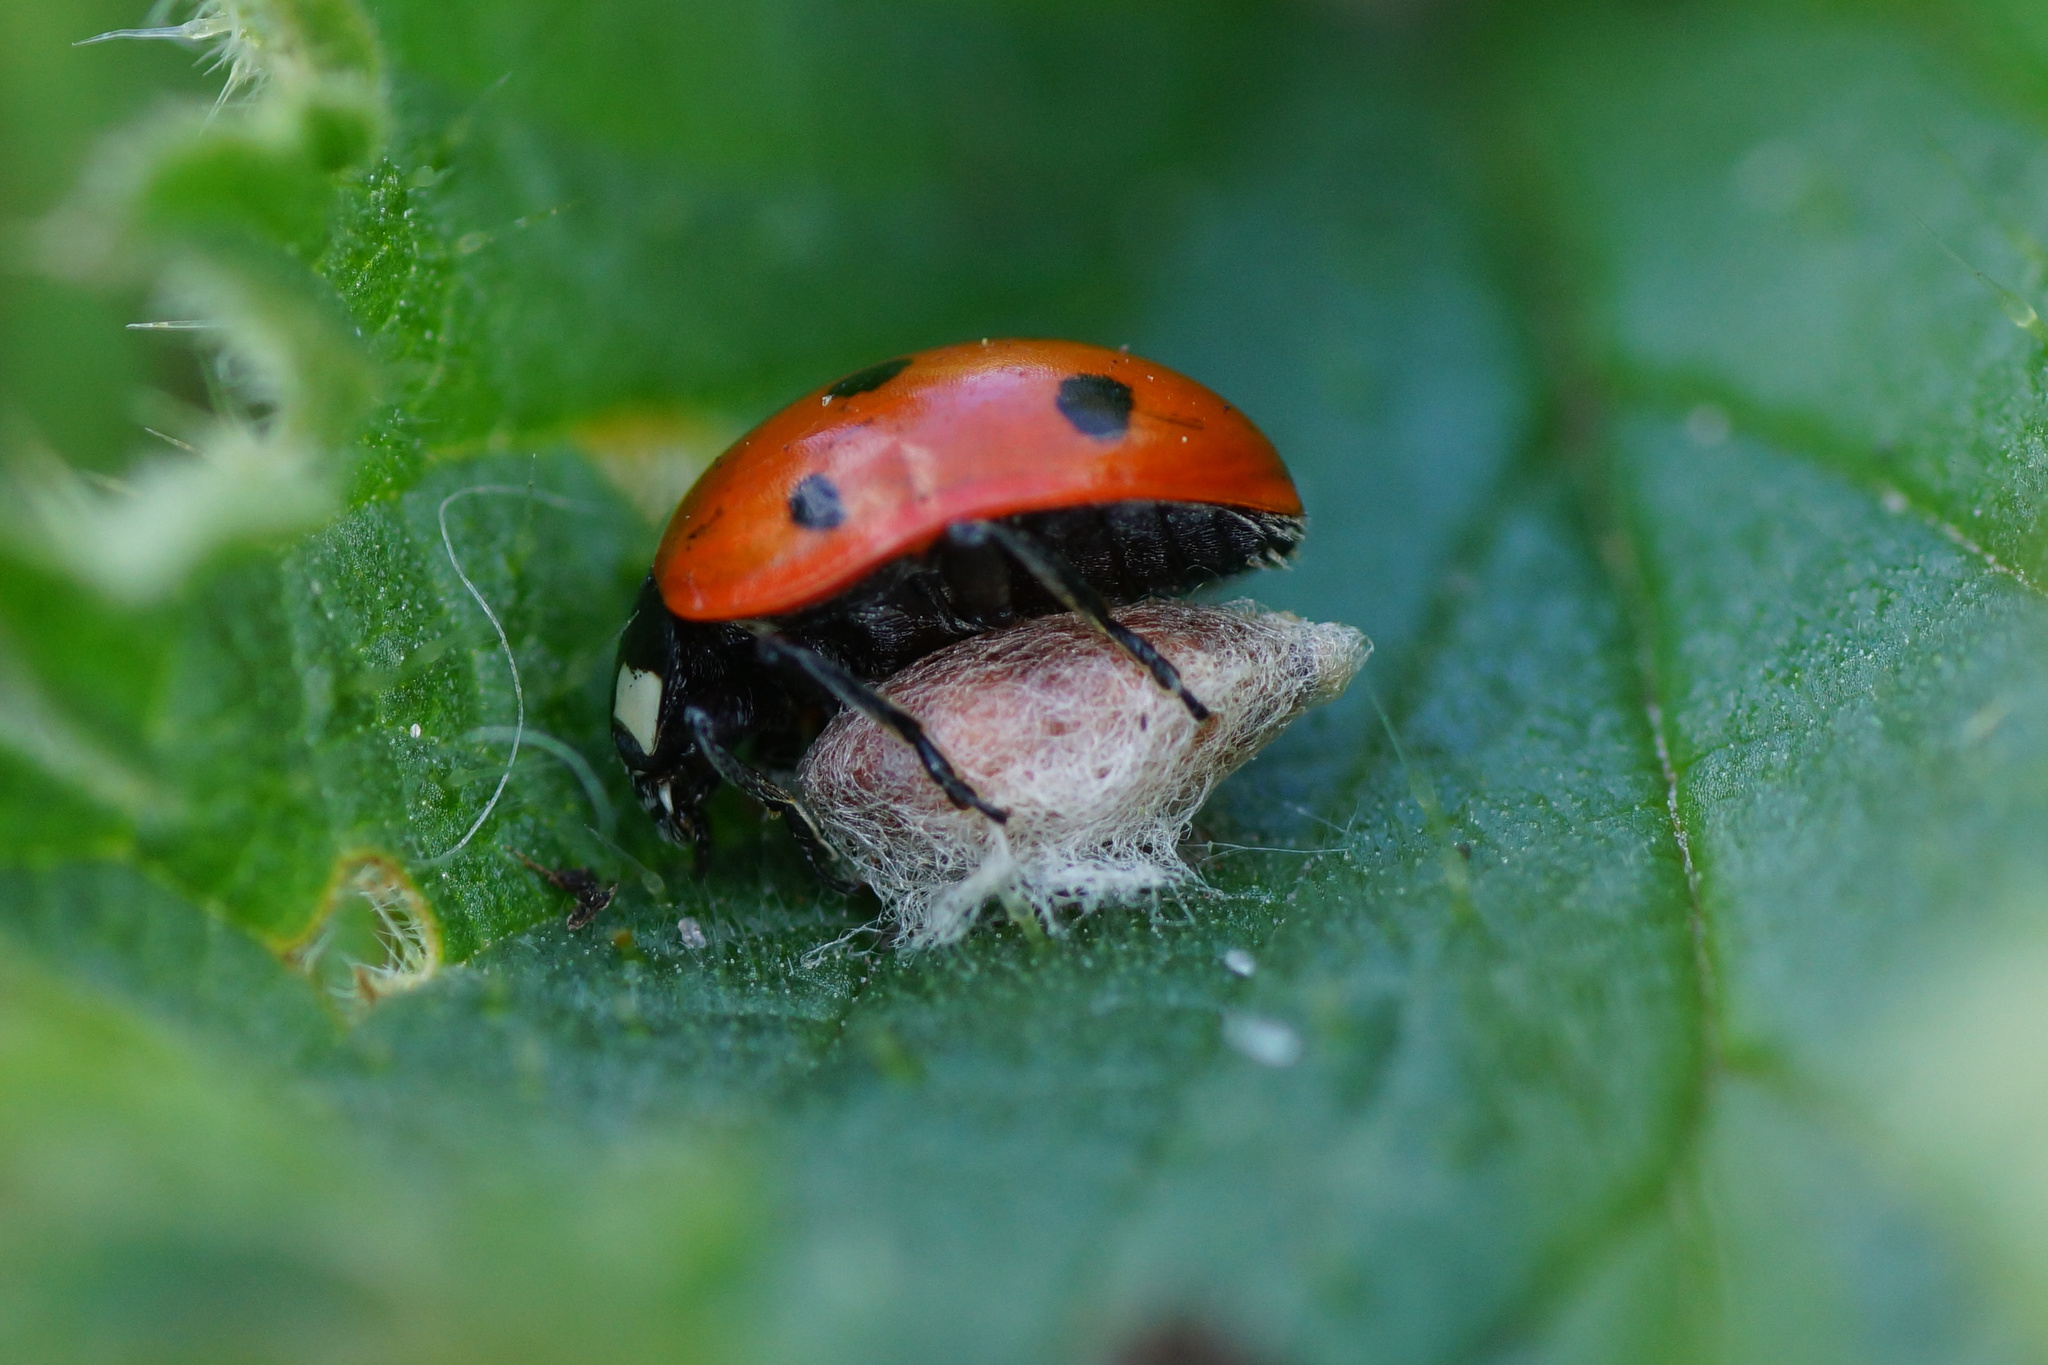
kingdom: Animalia
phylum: Arthropoda
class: Insecta
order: Hymenoptera
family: Braconidae
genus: Dinocampus
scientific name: Dinocampus coccinellae
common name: Braconid wasp
